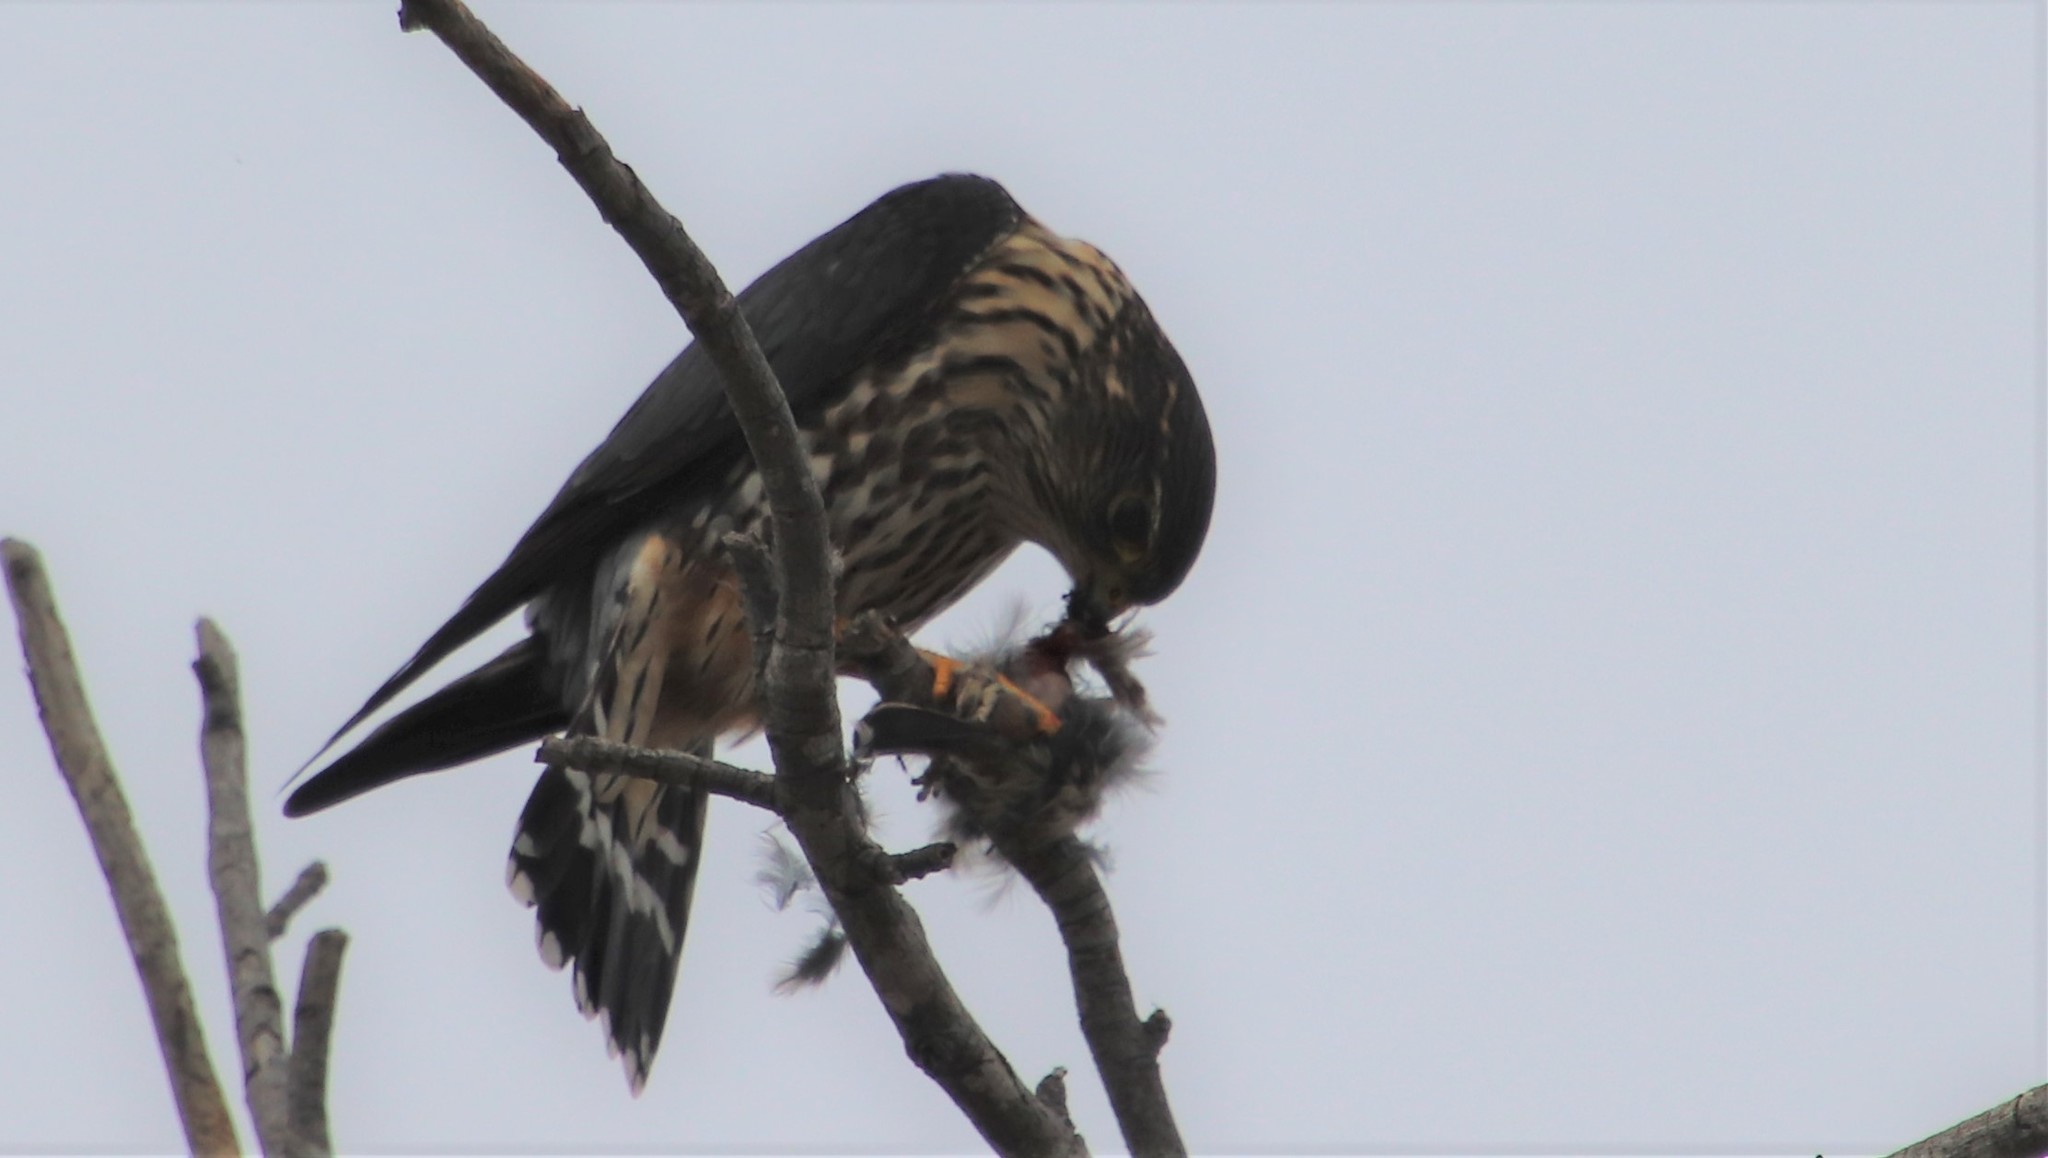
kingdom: Animalia
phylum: Chordata
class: Aves
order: Falconiformes
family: Falconidae
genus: Falco
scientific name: Falco columbarius
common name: Merlin
